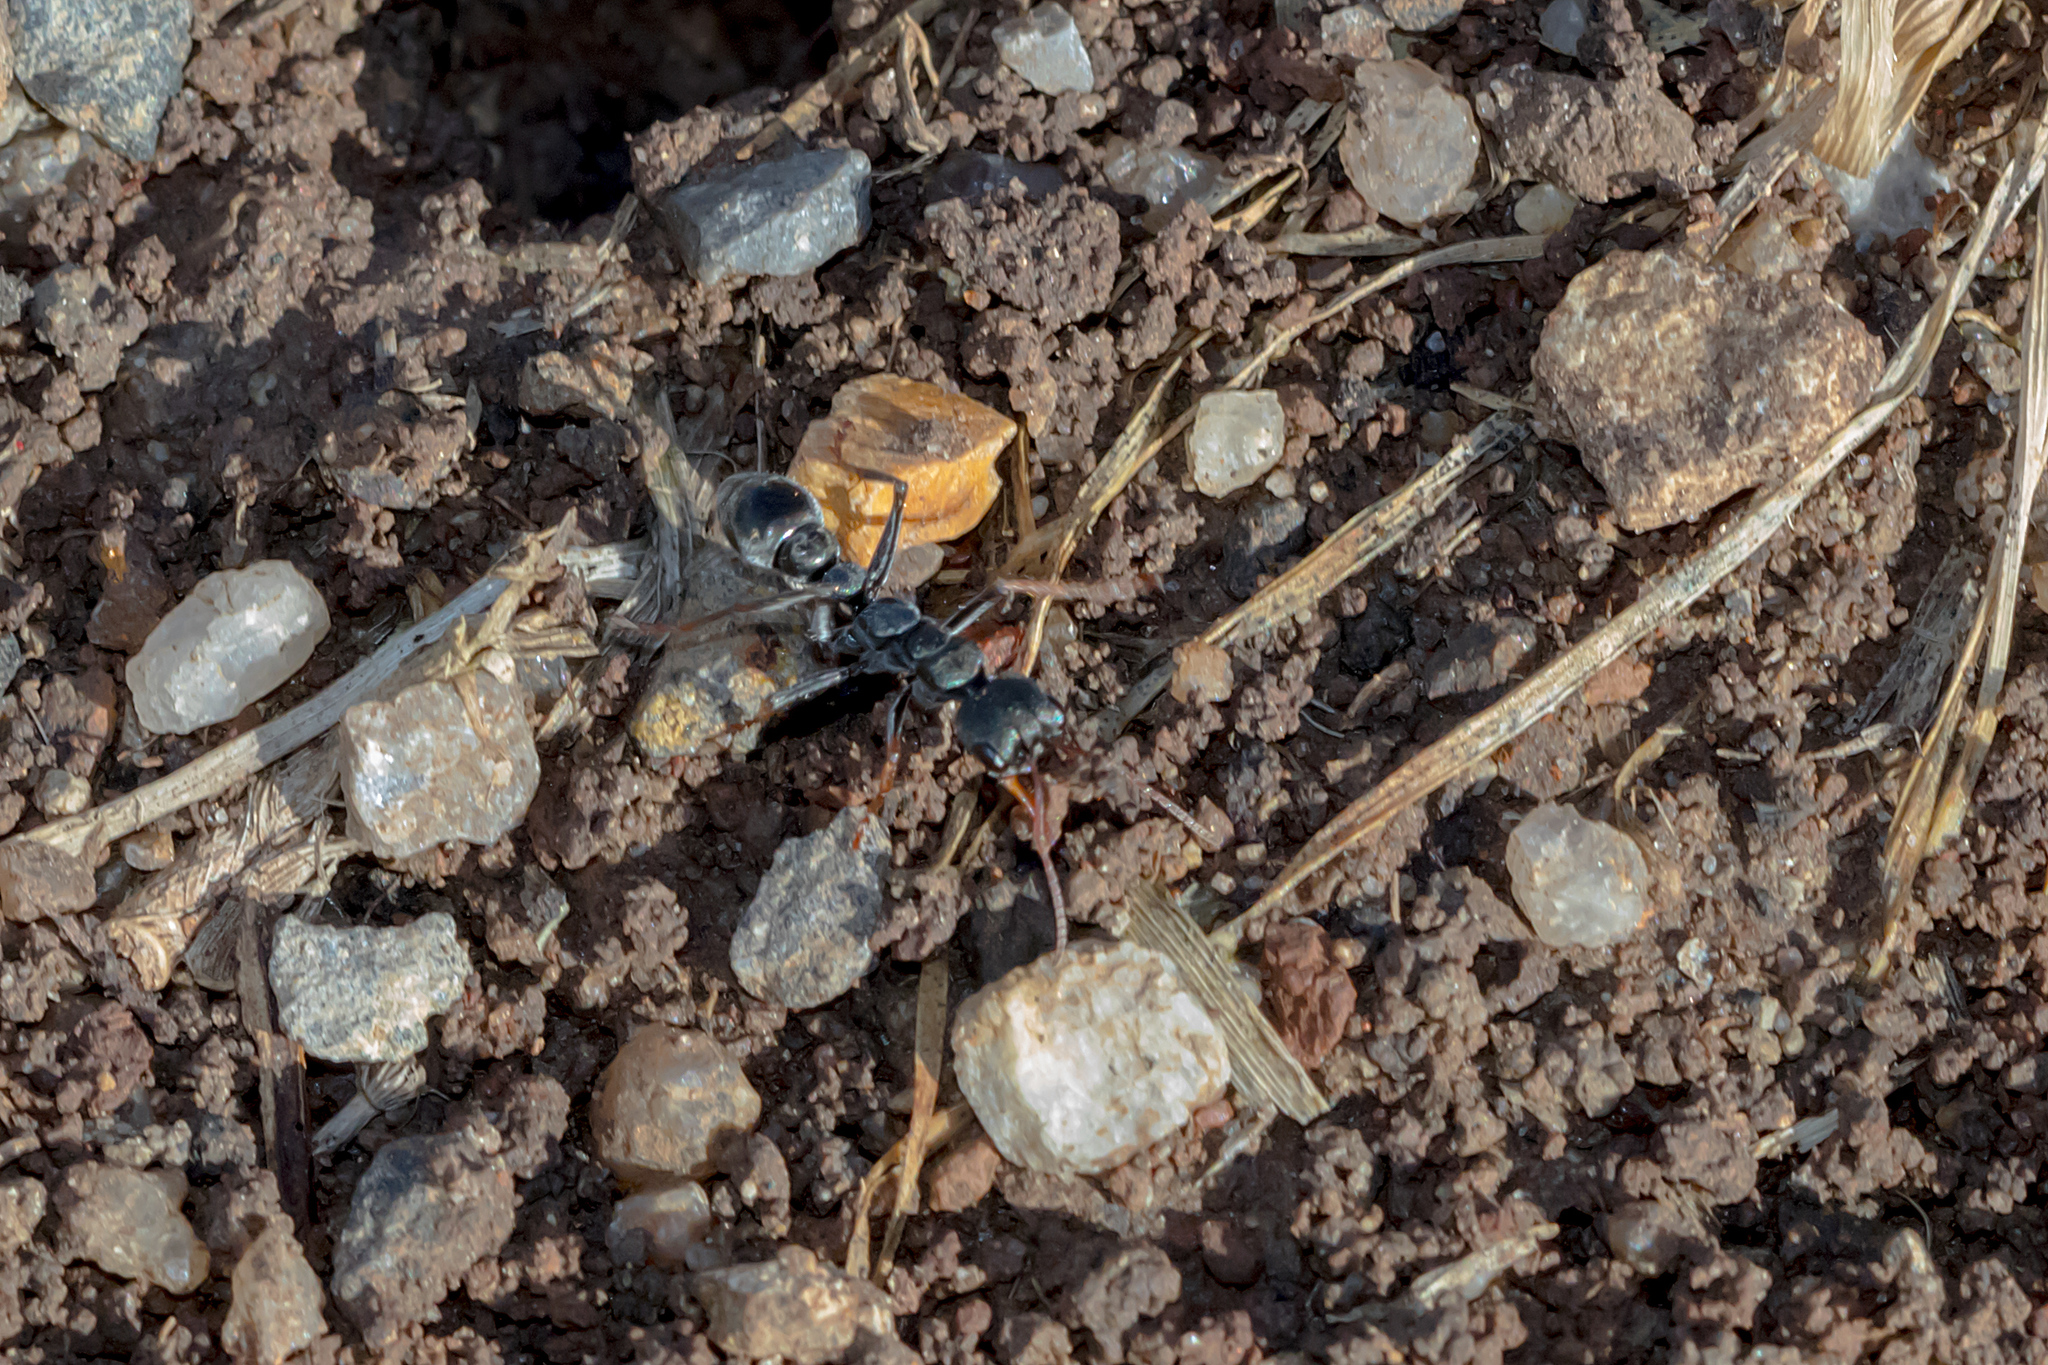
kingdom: Animalia
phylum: Arthropoda
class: Insecta
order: Hymenoptera
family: Formicidae
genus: Myrmecia
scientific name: Myrmecia pilosula
